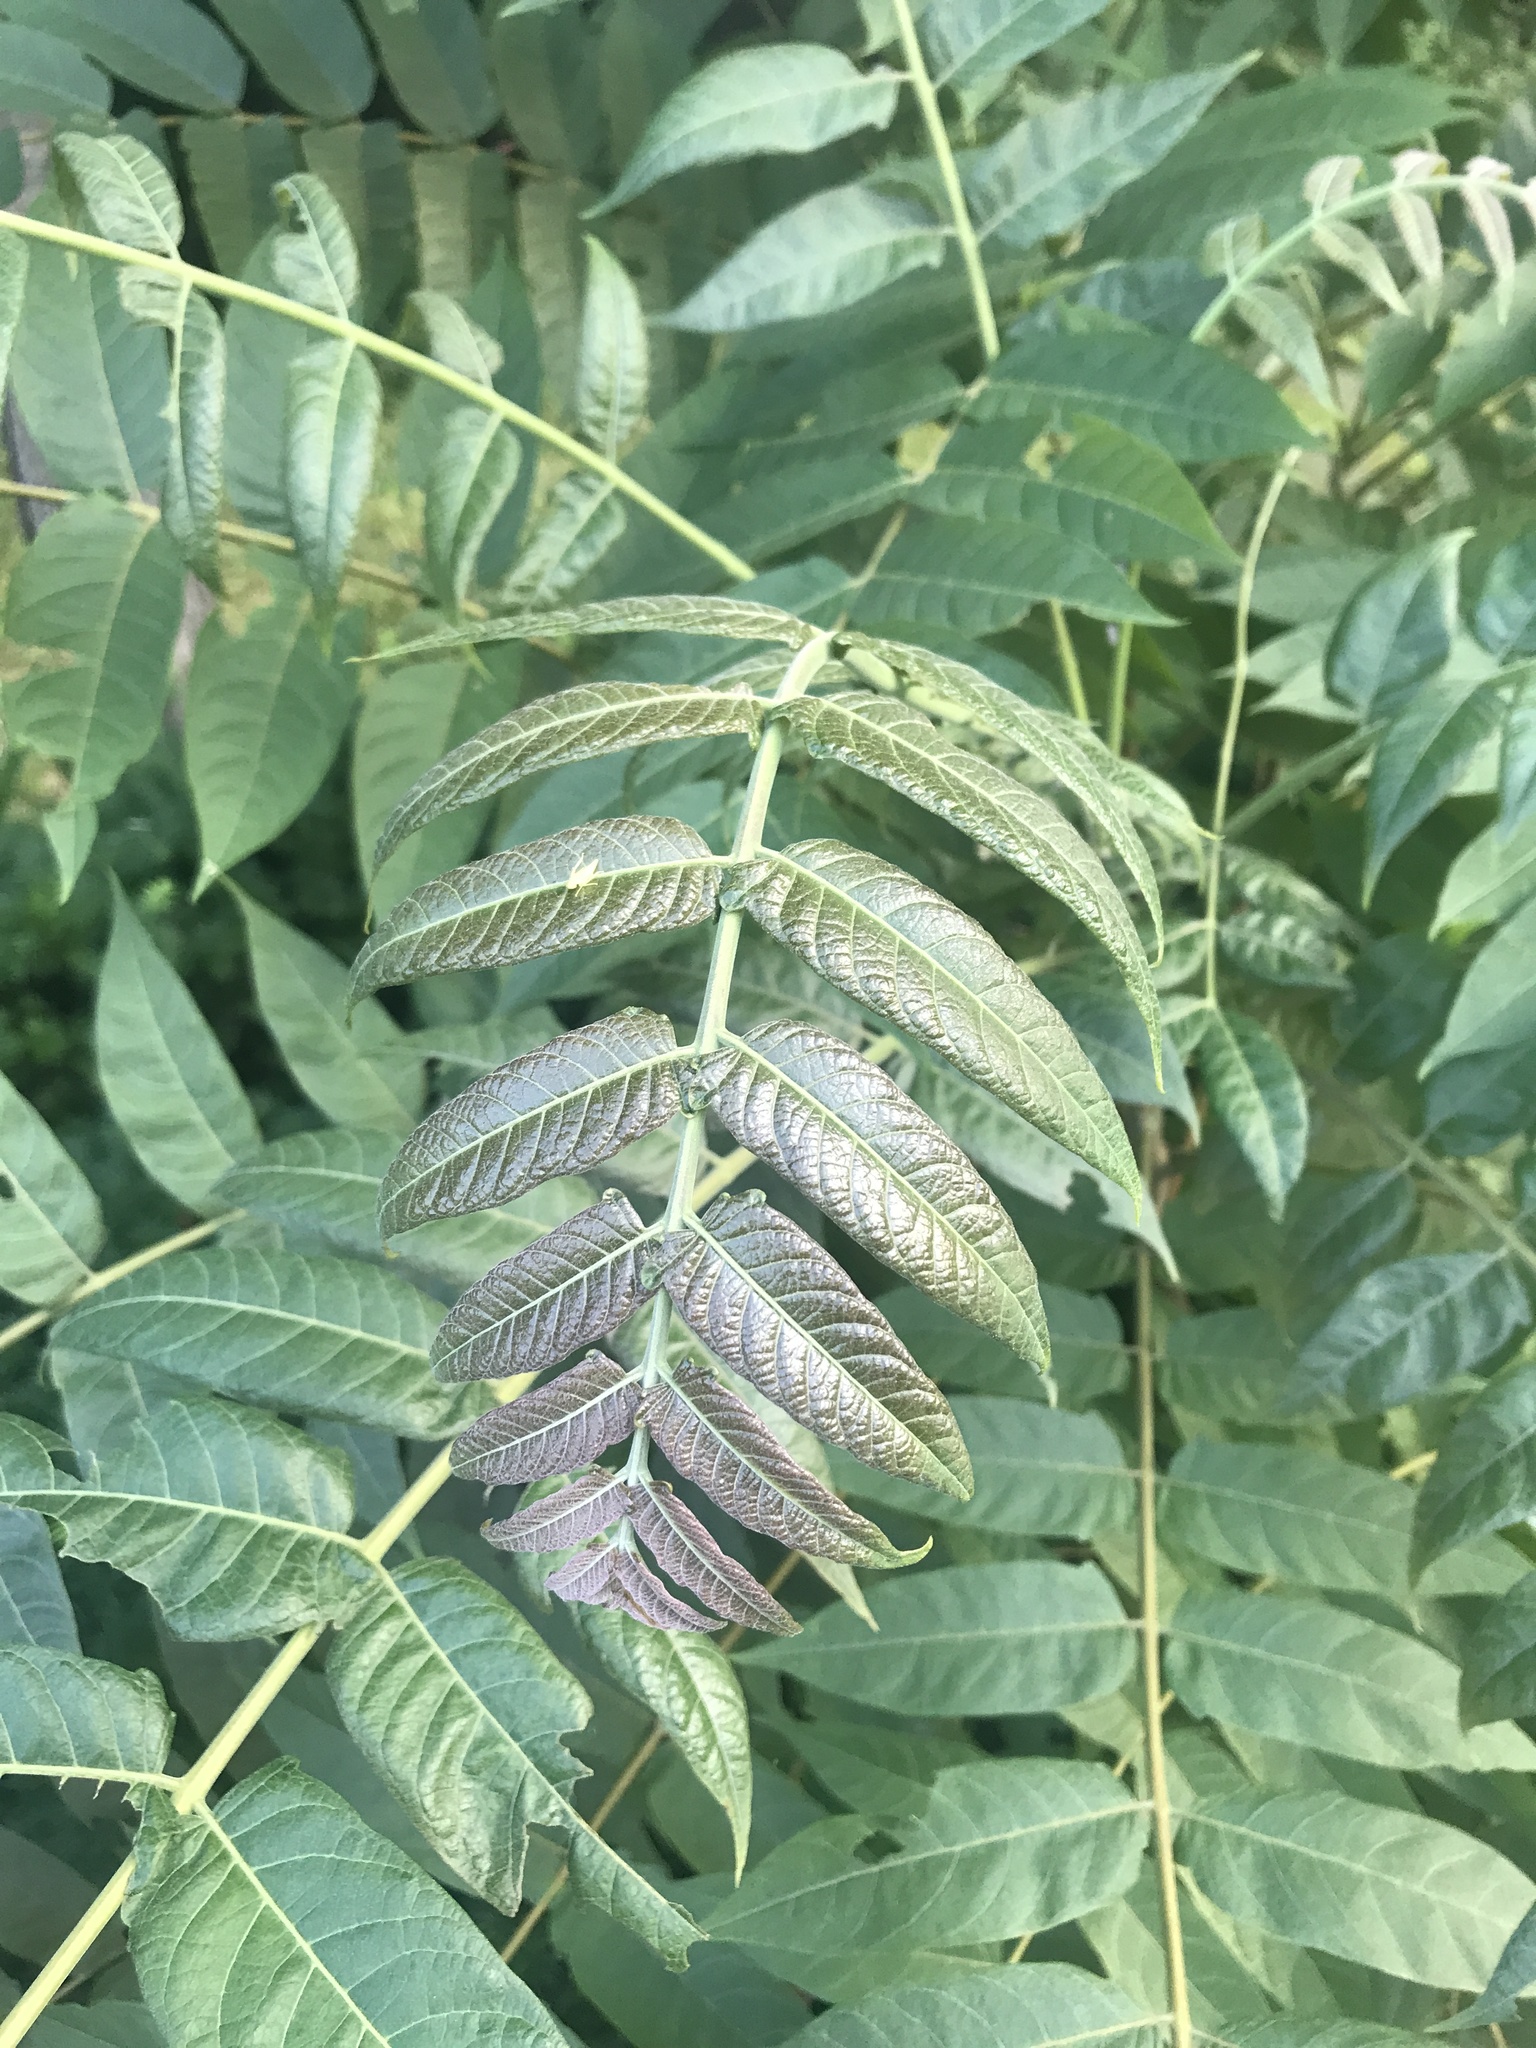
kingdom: Plantae
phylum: Tracheophyta
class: Magnoliopsida
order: Sapindales
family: Simaroubaceae
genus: Ailanthus
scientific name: Ailanthus altissima
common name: Tree-of-heaven
